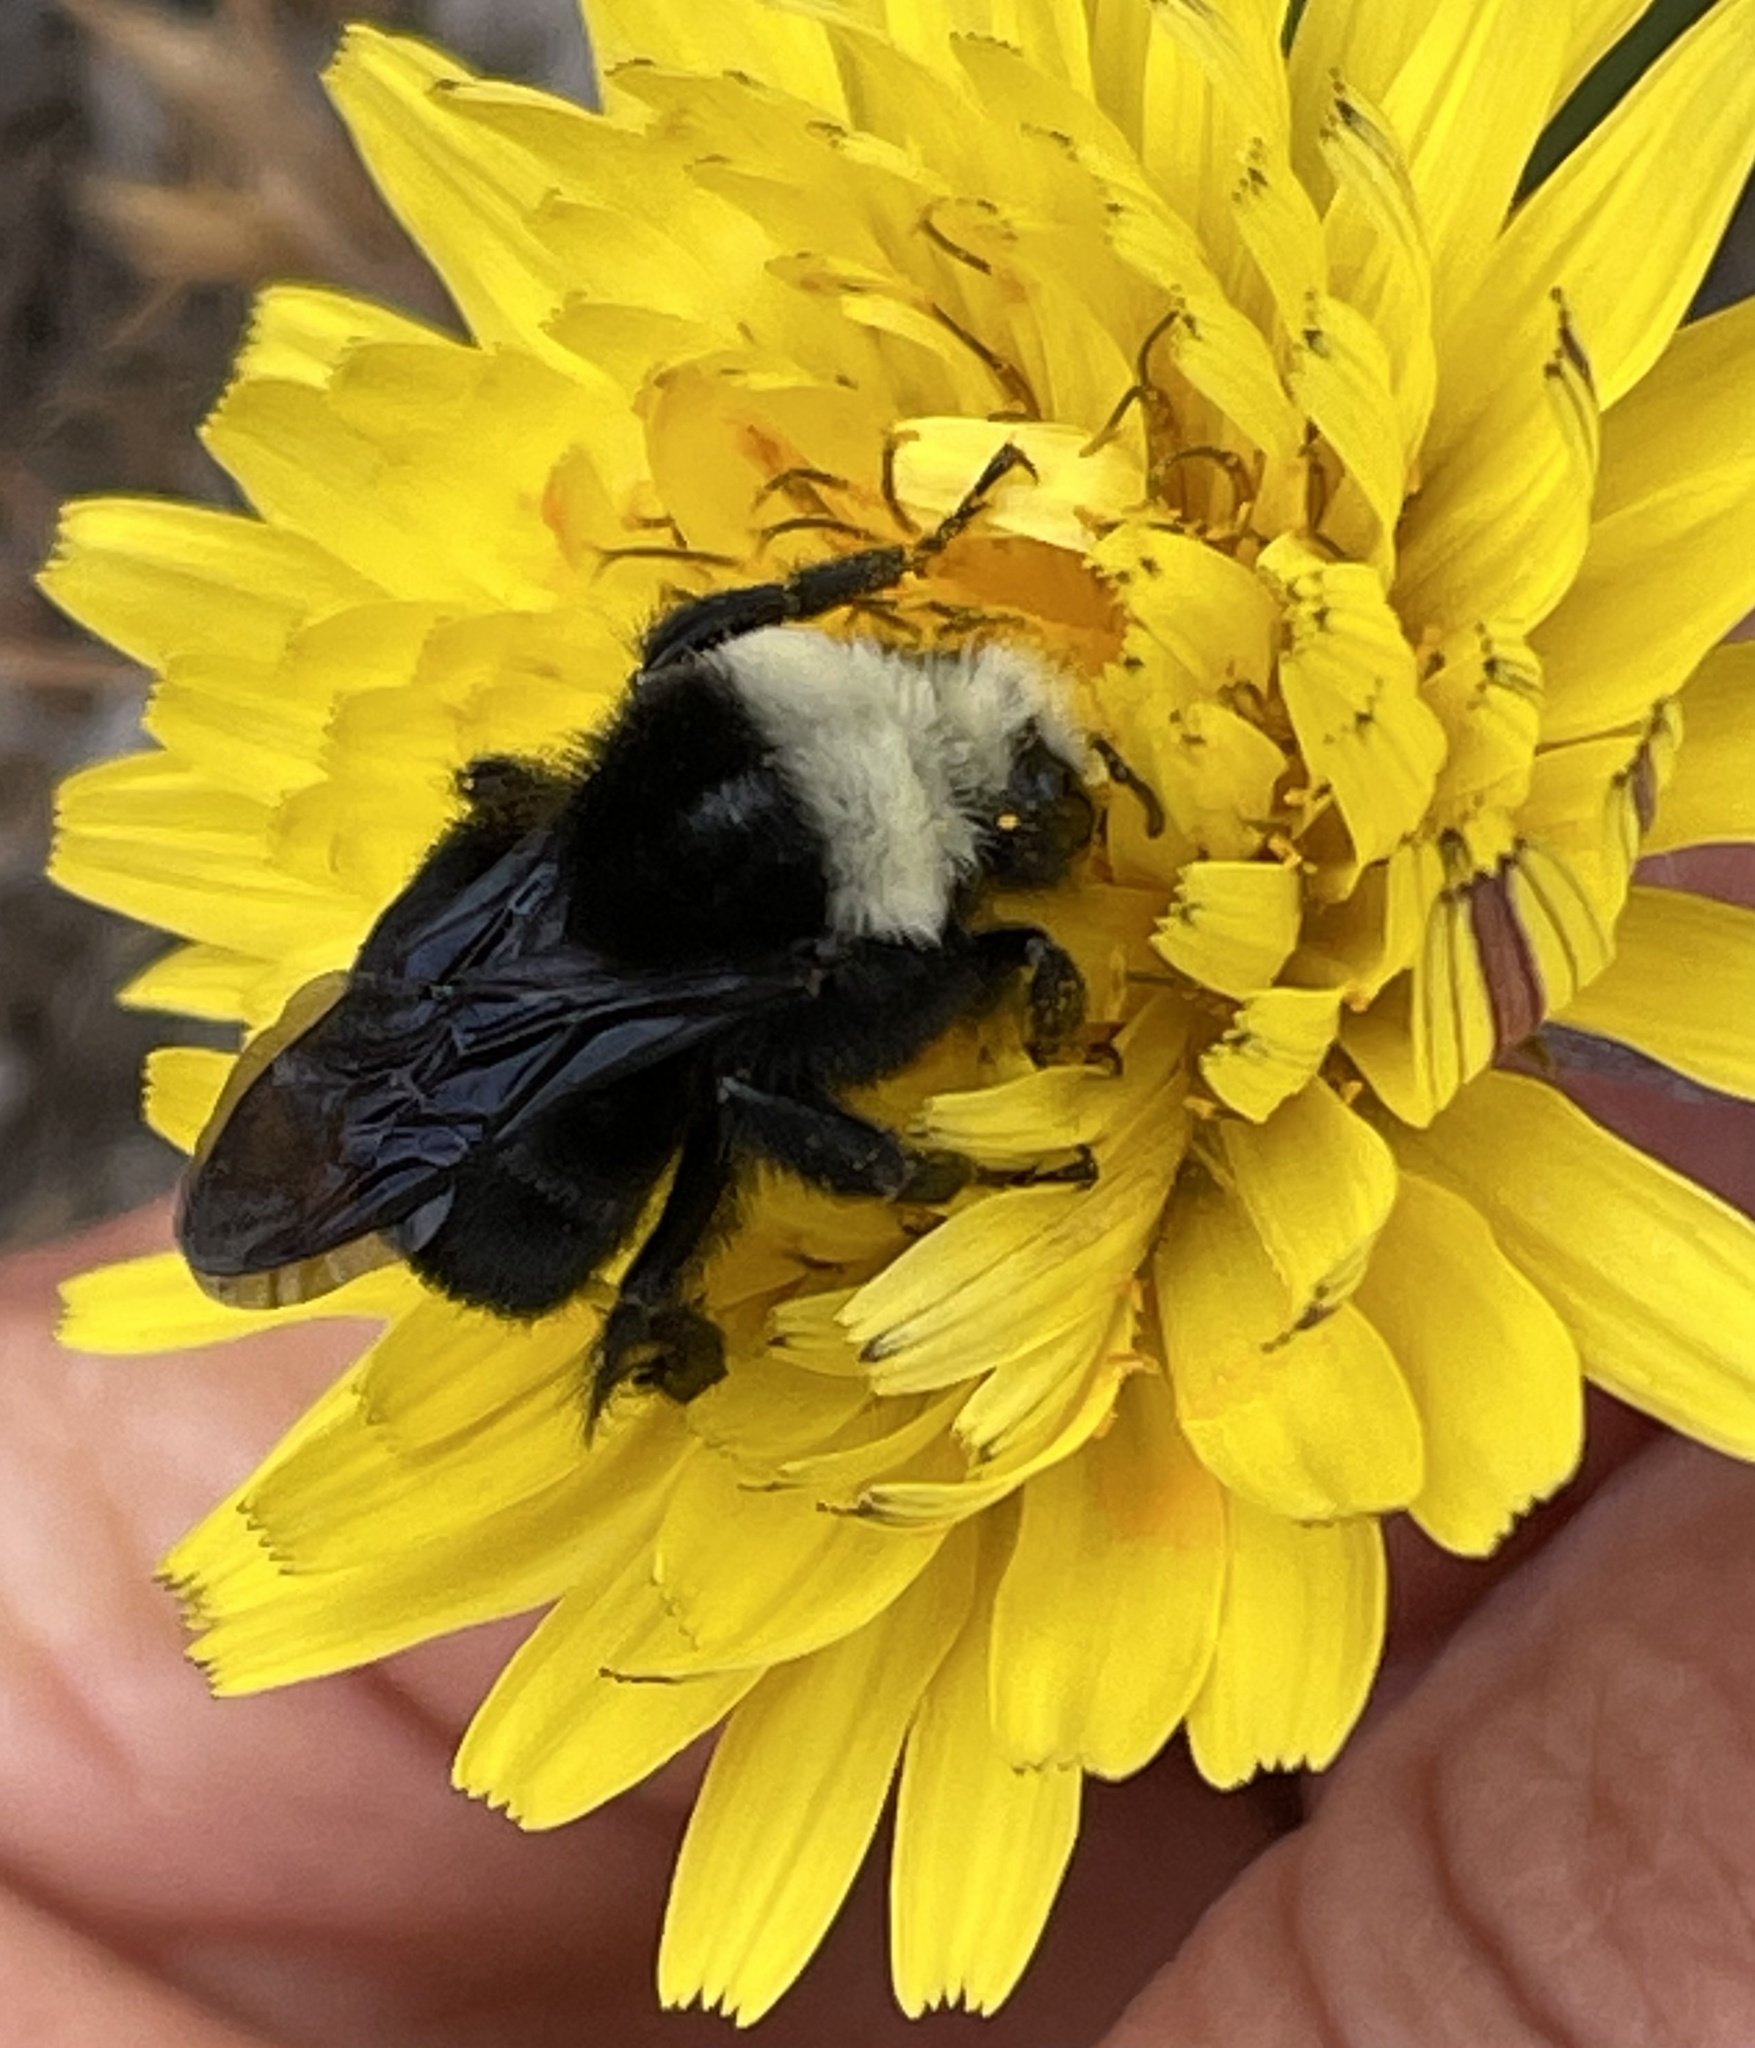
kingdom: Animalia
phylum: Arthropoda
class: Insecta
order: Hymenoptera
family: Apidae
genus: Bombus
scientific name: Bombus vosnesenskii
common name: Vosnesensky bumble bee
